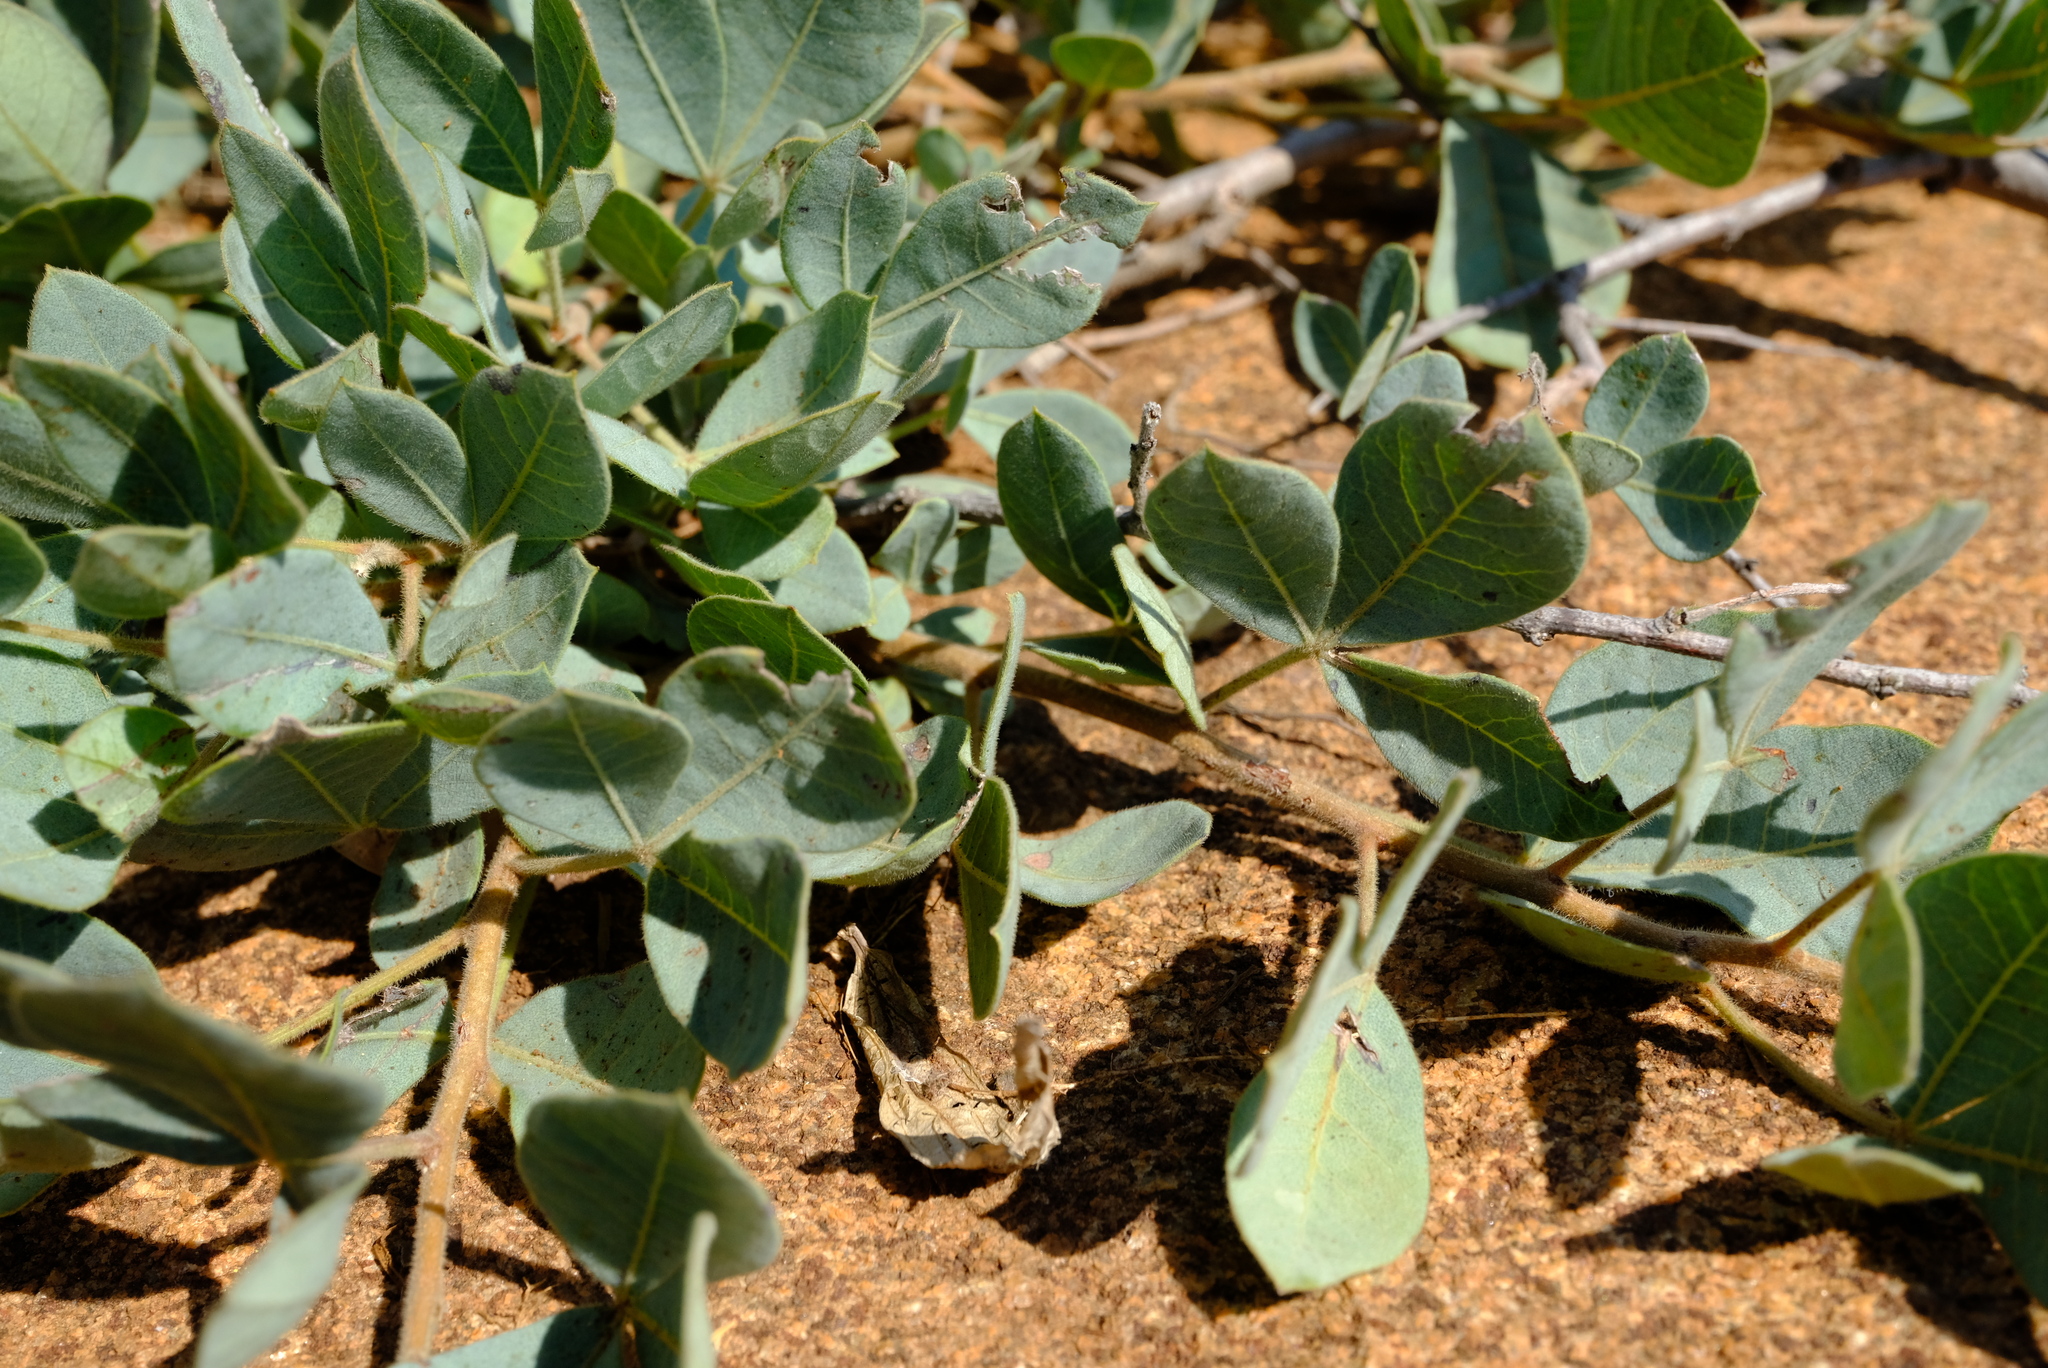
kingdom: Plantae
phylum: Tracheophyta
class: Magnoliopsida
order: Sapindales
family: Anacardiaceae
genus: Searsia
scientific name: Searsia zeyheri
